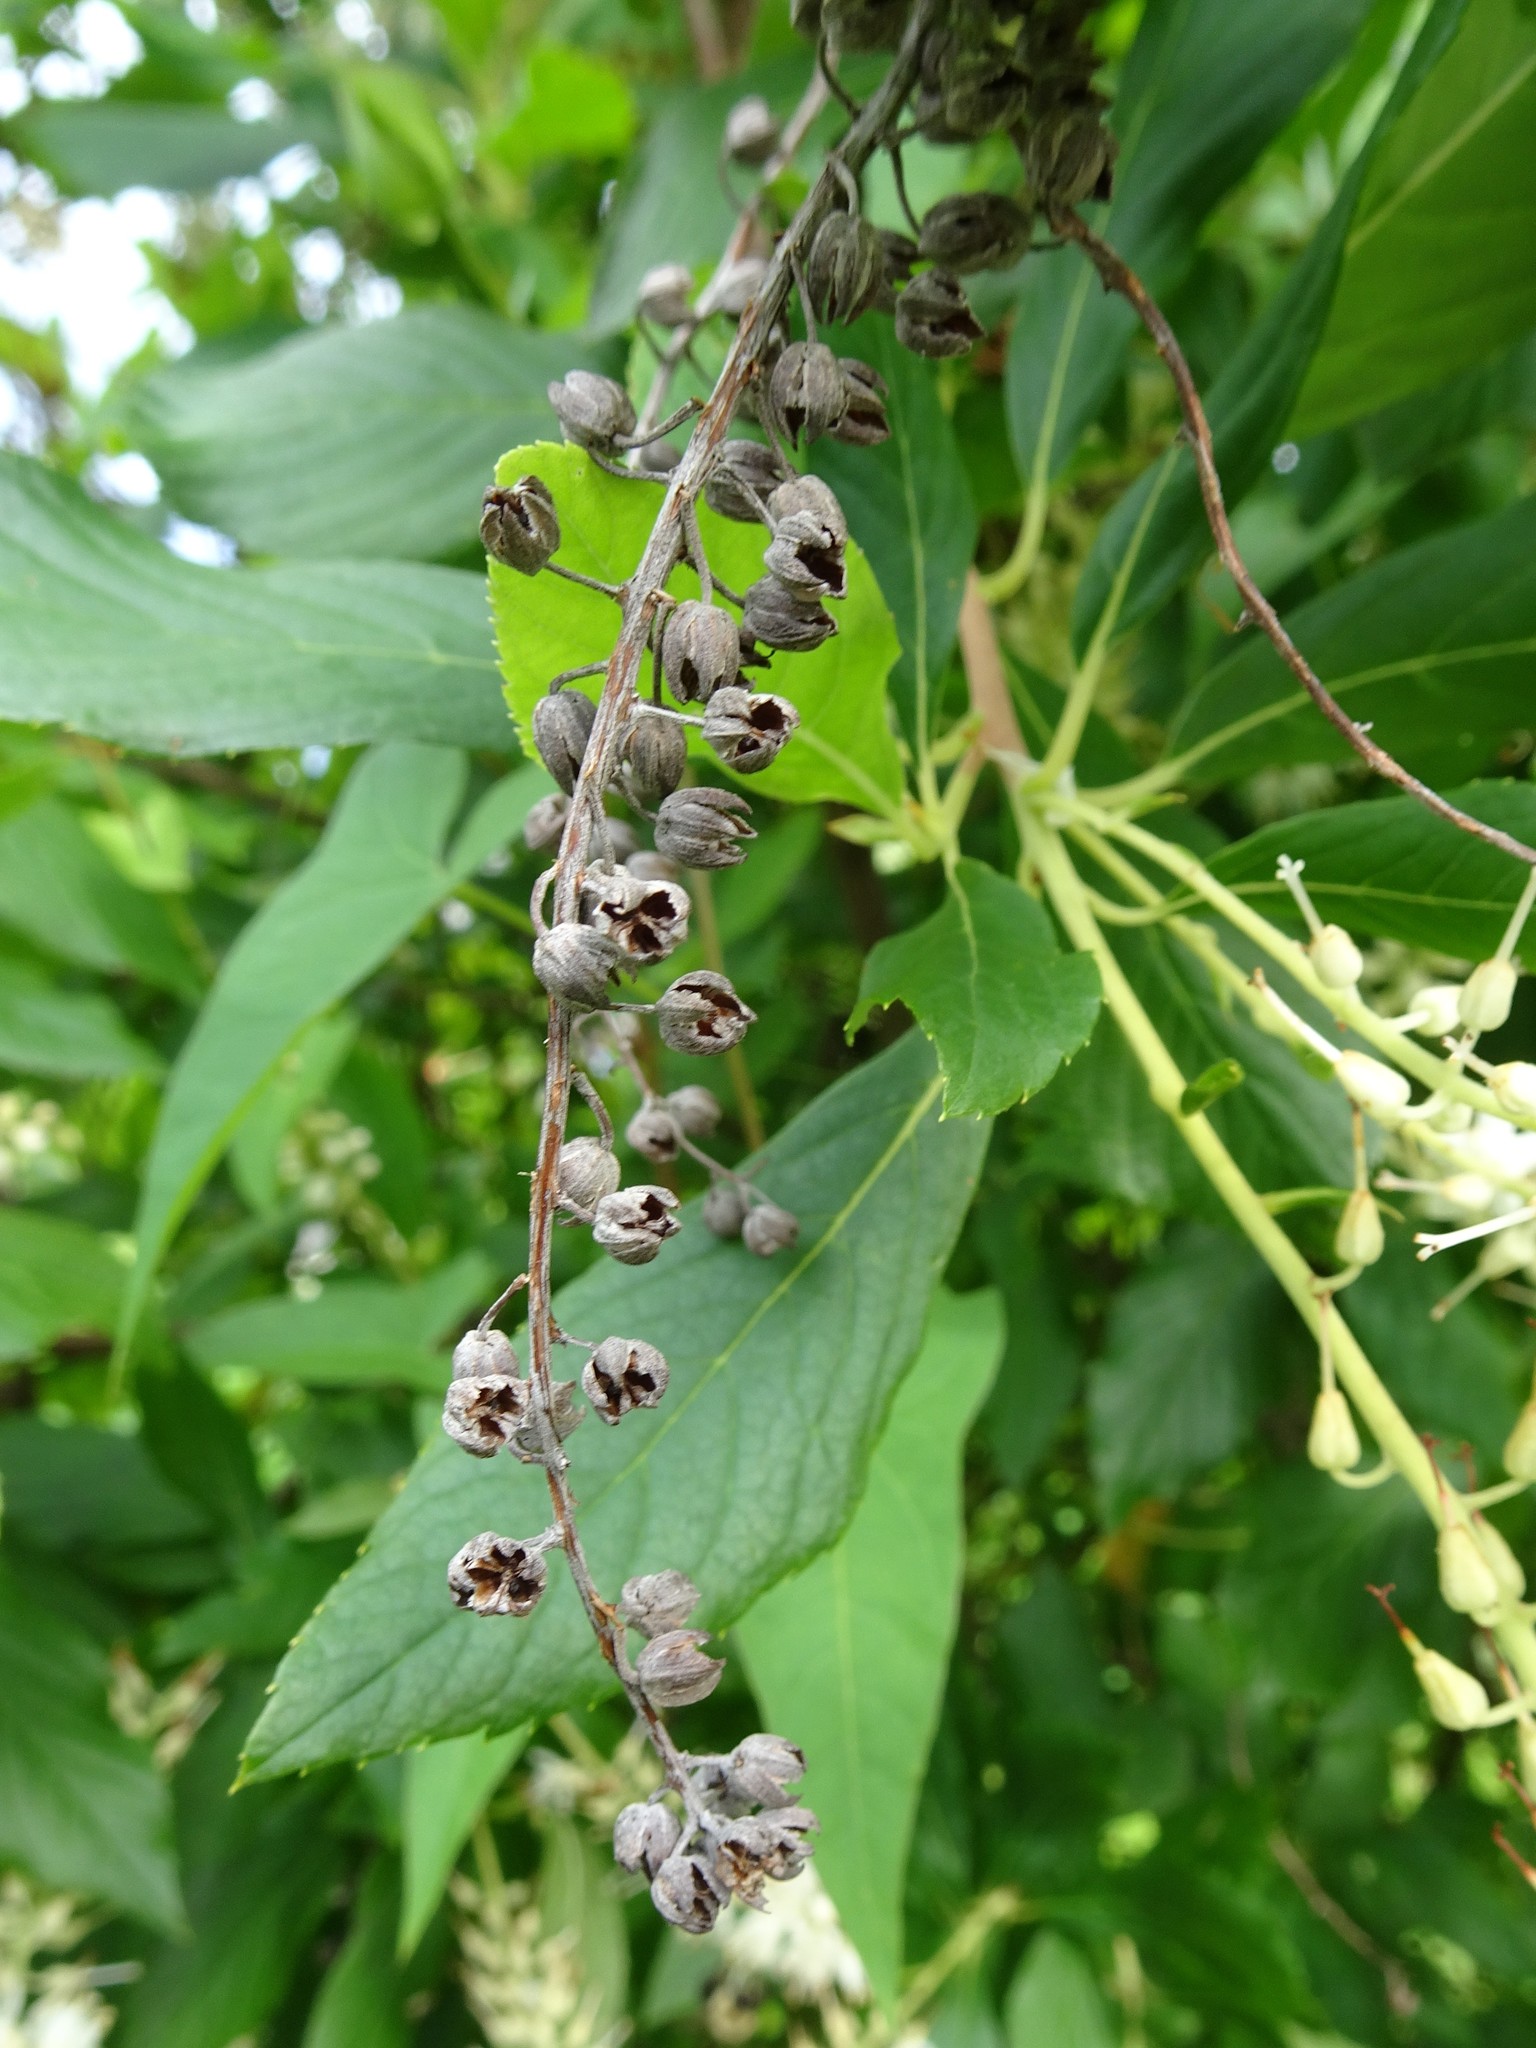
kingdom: Plantae
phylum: Tracheophyta
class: Magnoliopsida
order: Ericales
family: Clethraceae
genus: Clethra
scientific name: Clethra alnifolia
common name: Sweet pepperbush
